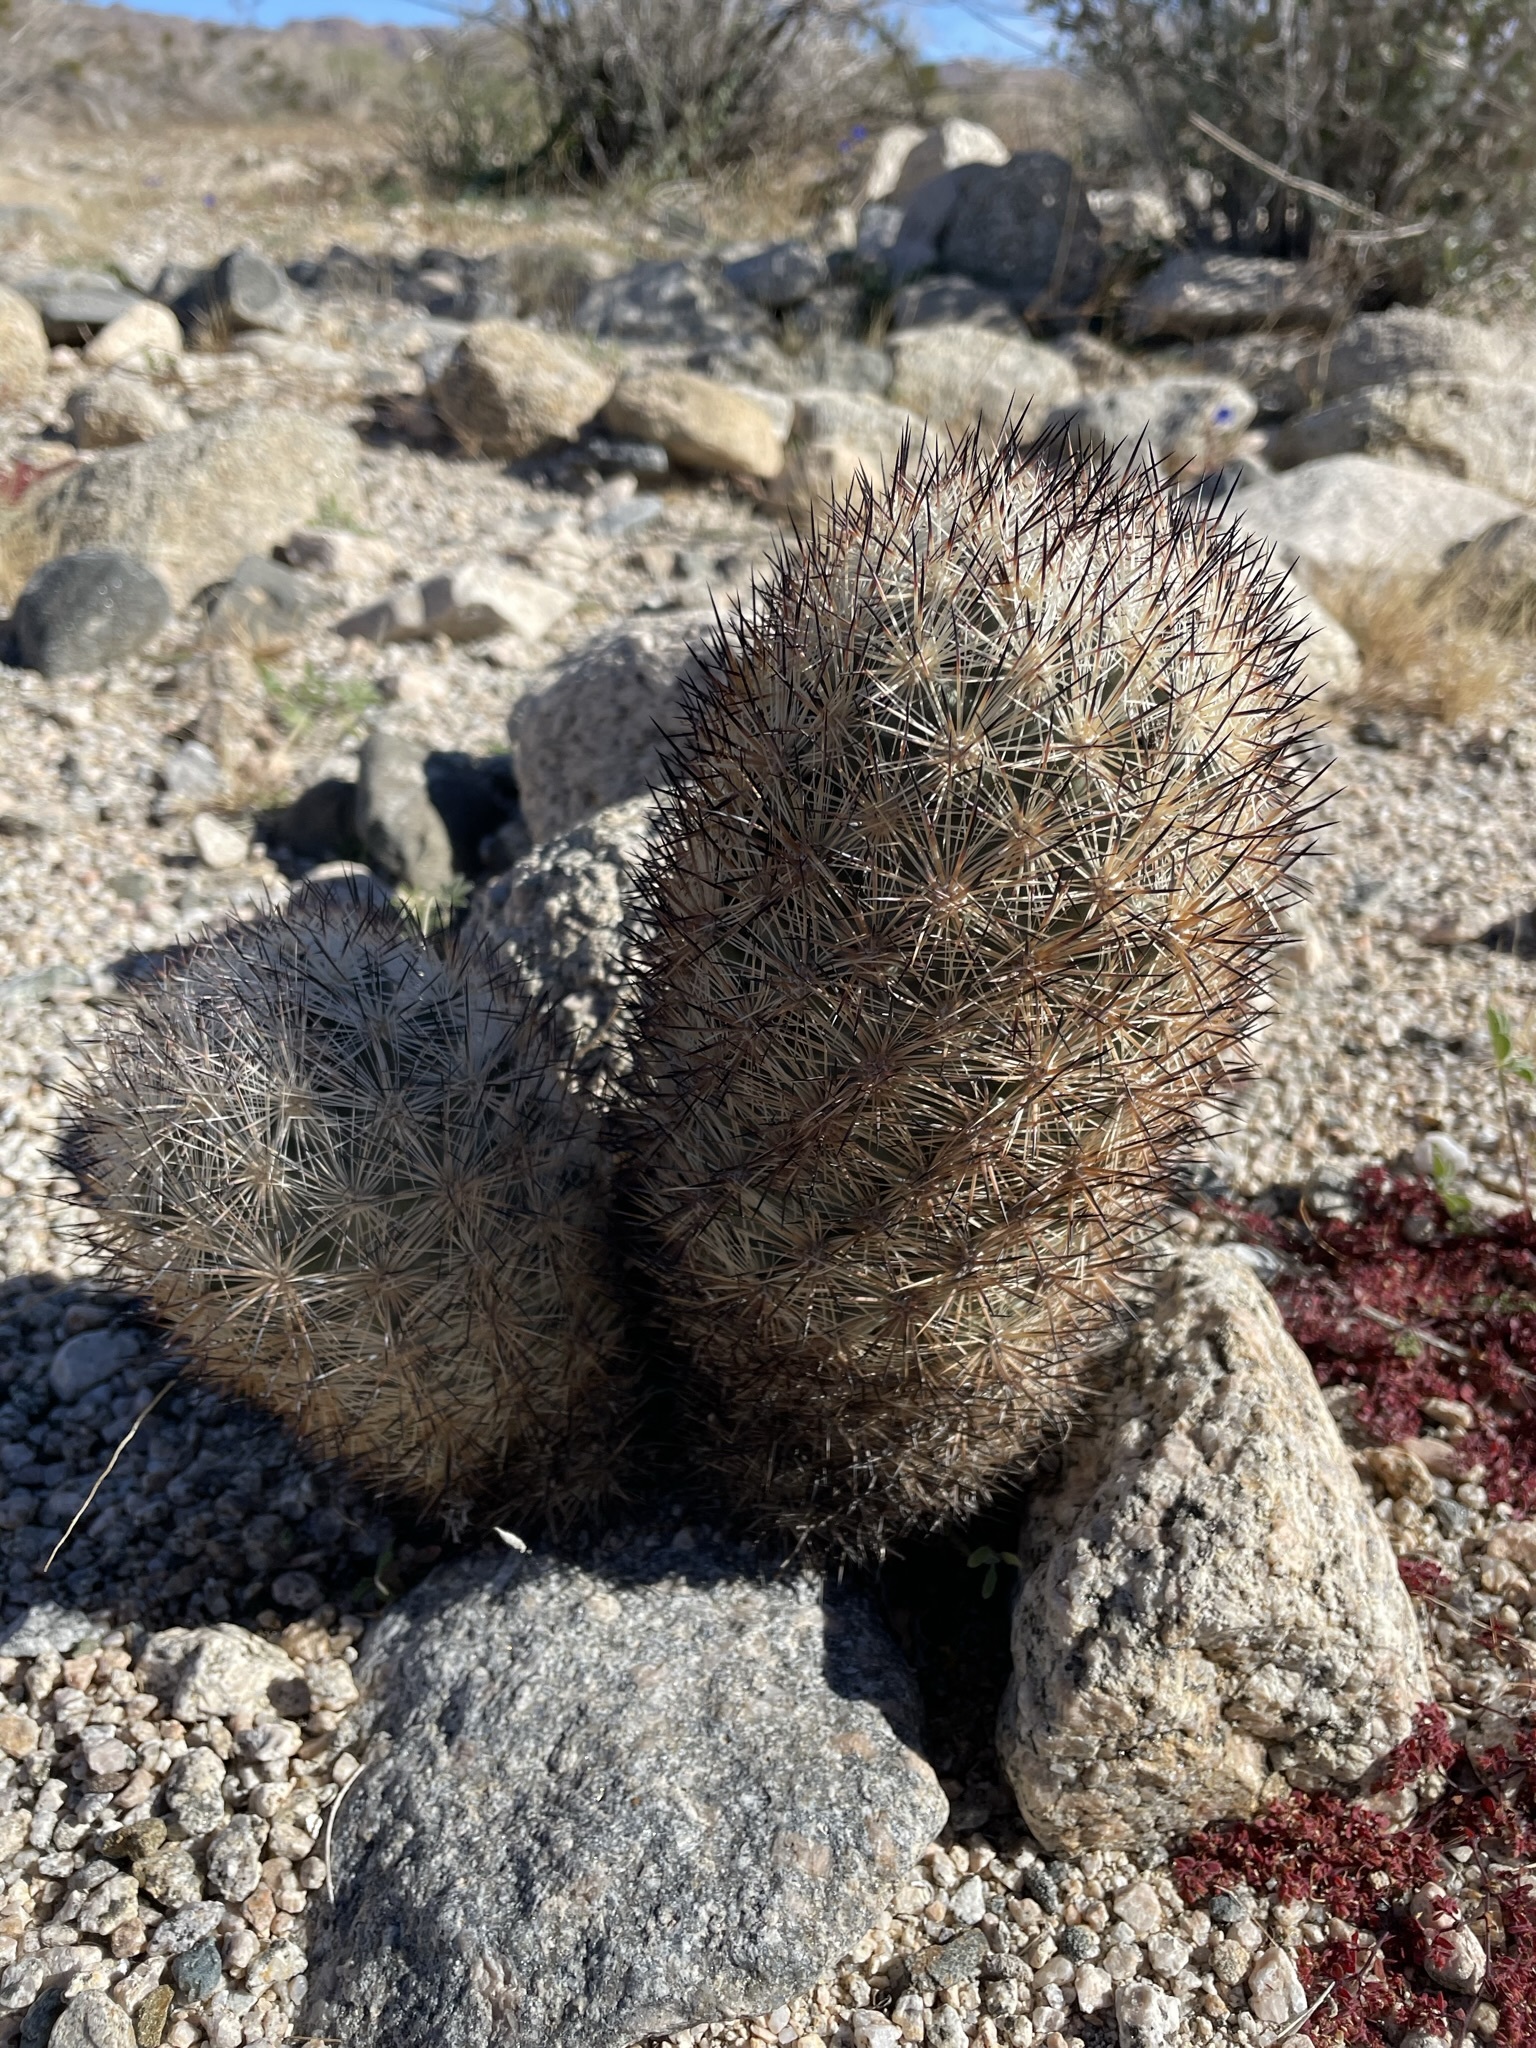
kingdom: Plantae
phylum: Tracheophyta
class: Magnoliopsida
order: Caryophyllales
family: Cactaceae
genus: Pelecyphora
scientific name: Pelecyphora alversonii
